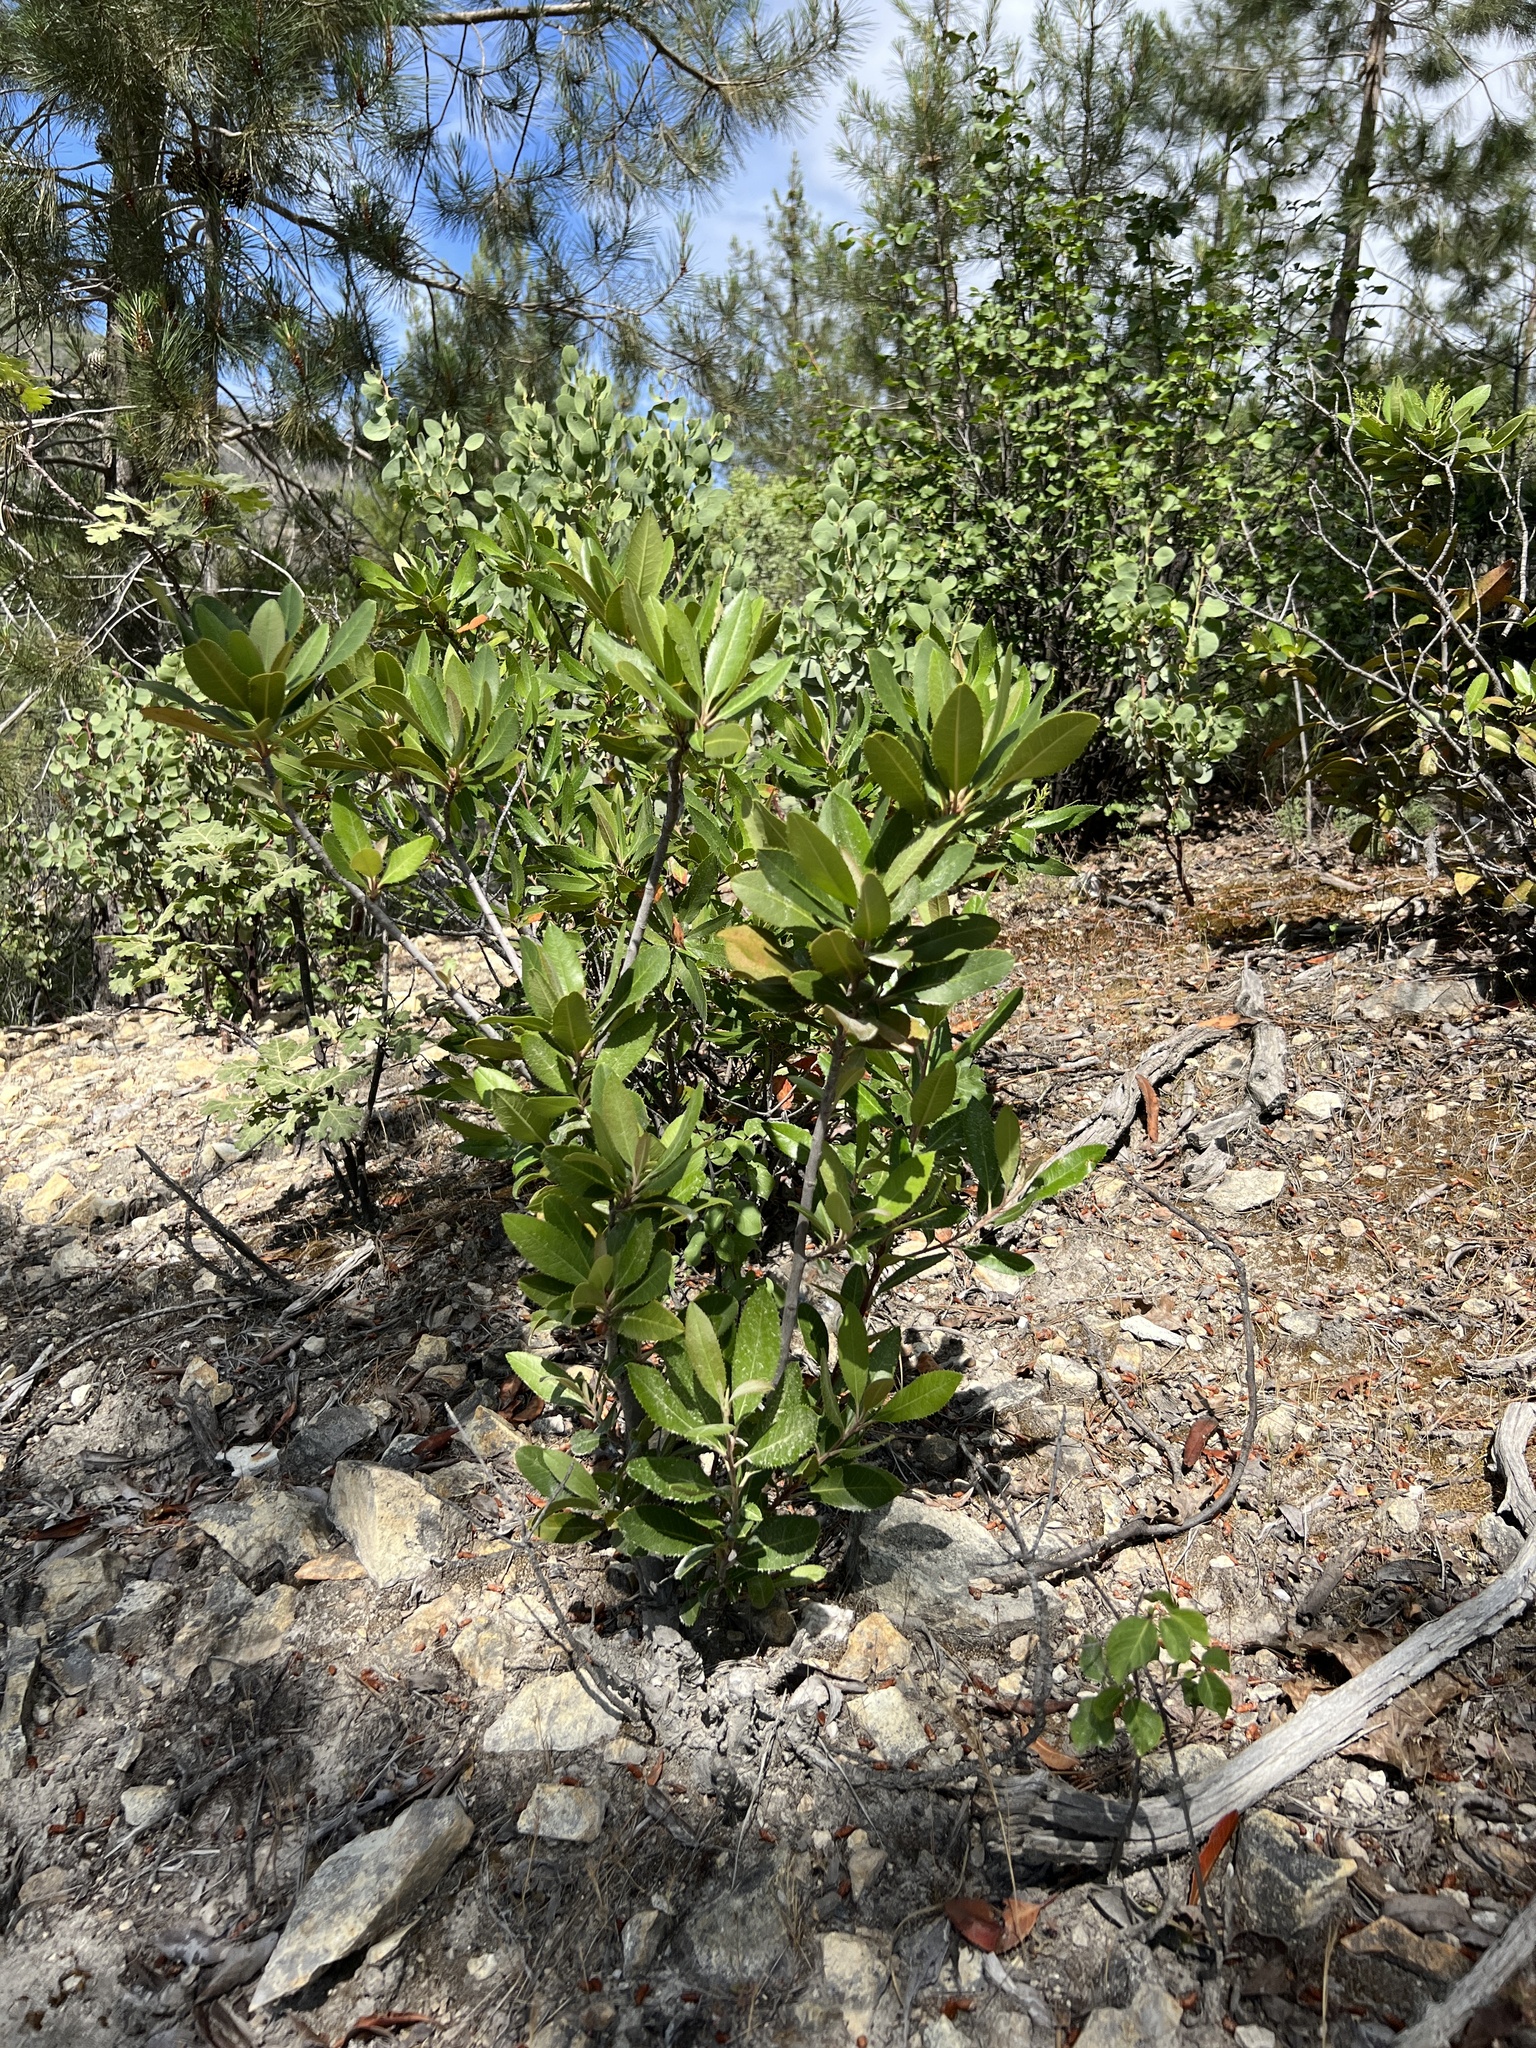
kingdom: Plantae
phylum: Tracheophyta
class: Magnoliopsida
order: Rosales
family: Rosaceae
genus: Heteromeles
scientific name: Heteromeles arbutifolia
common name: California-holly
